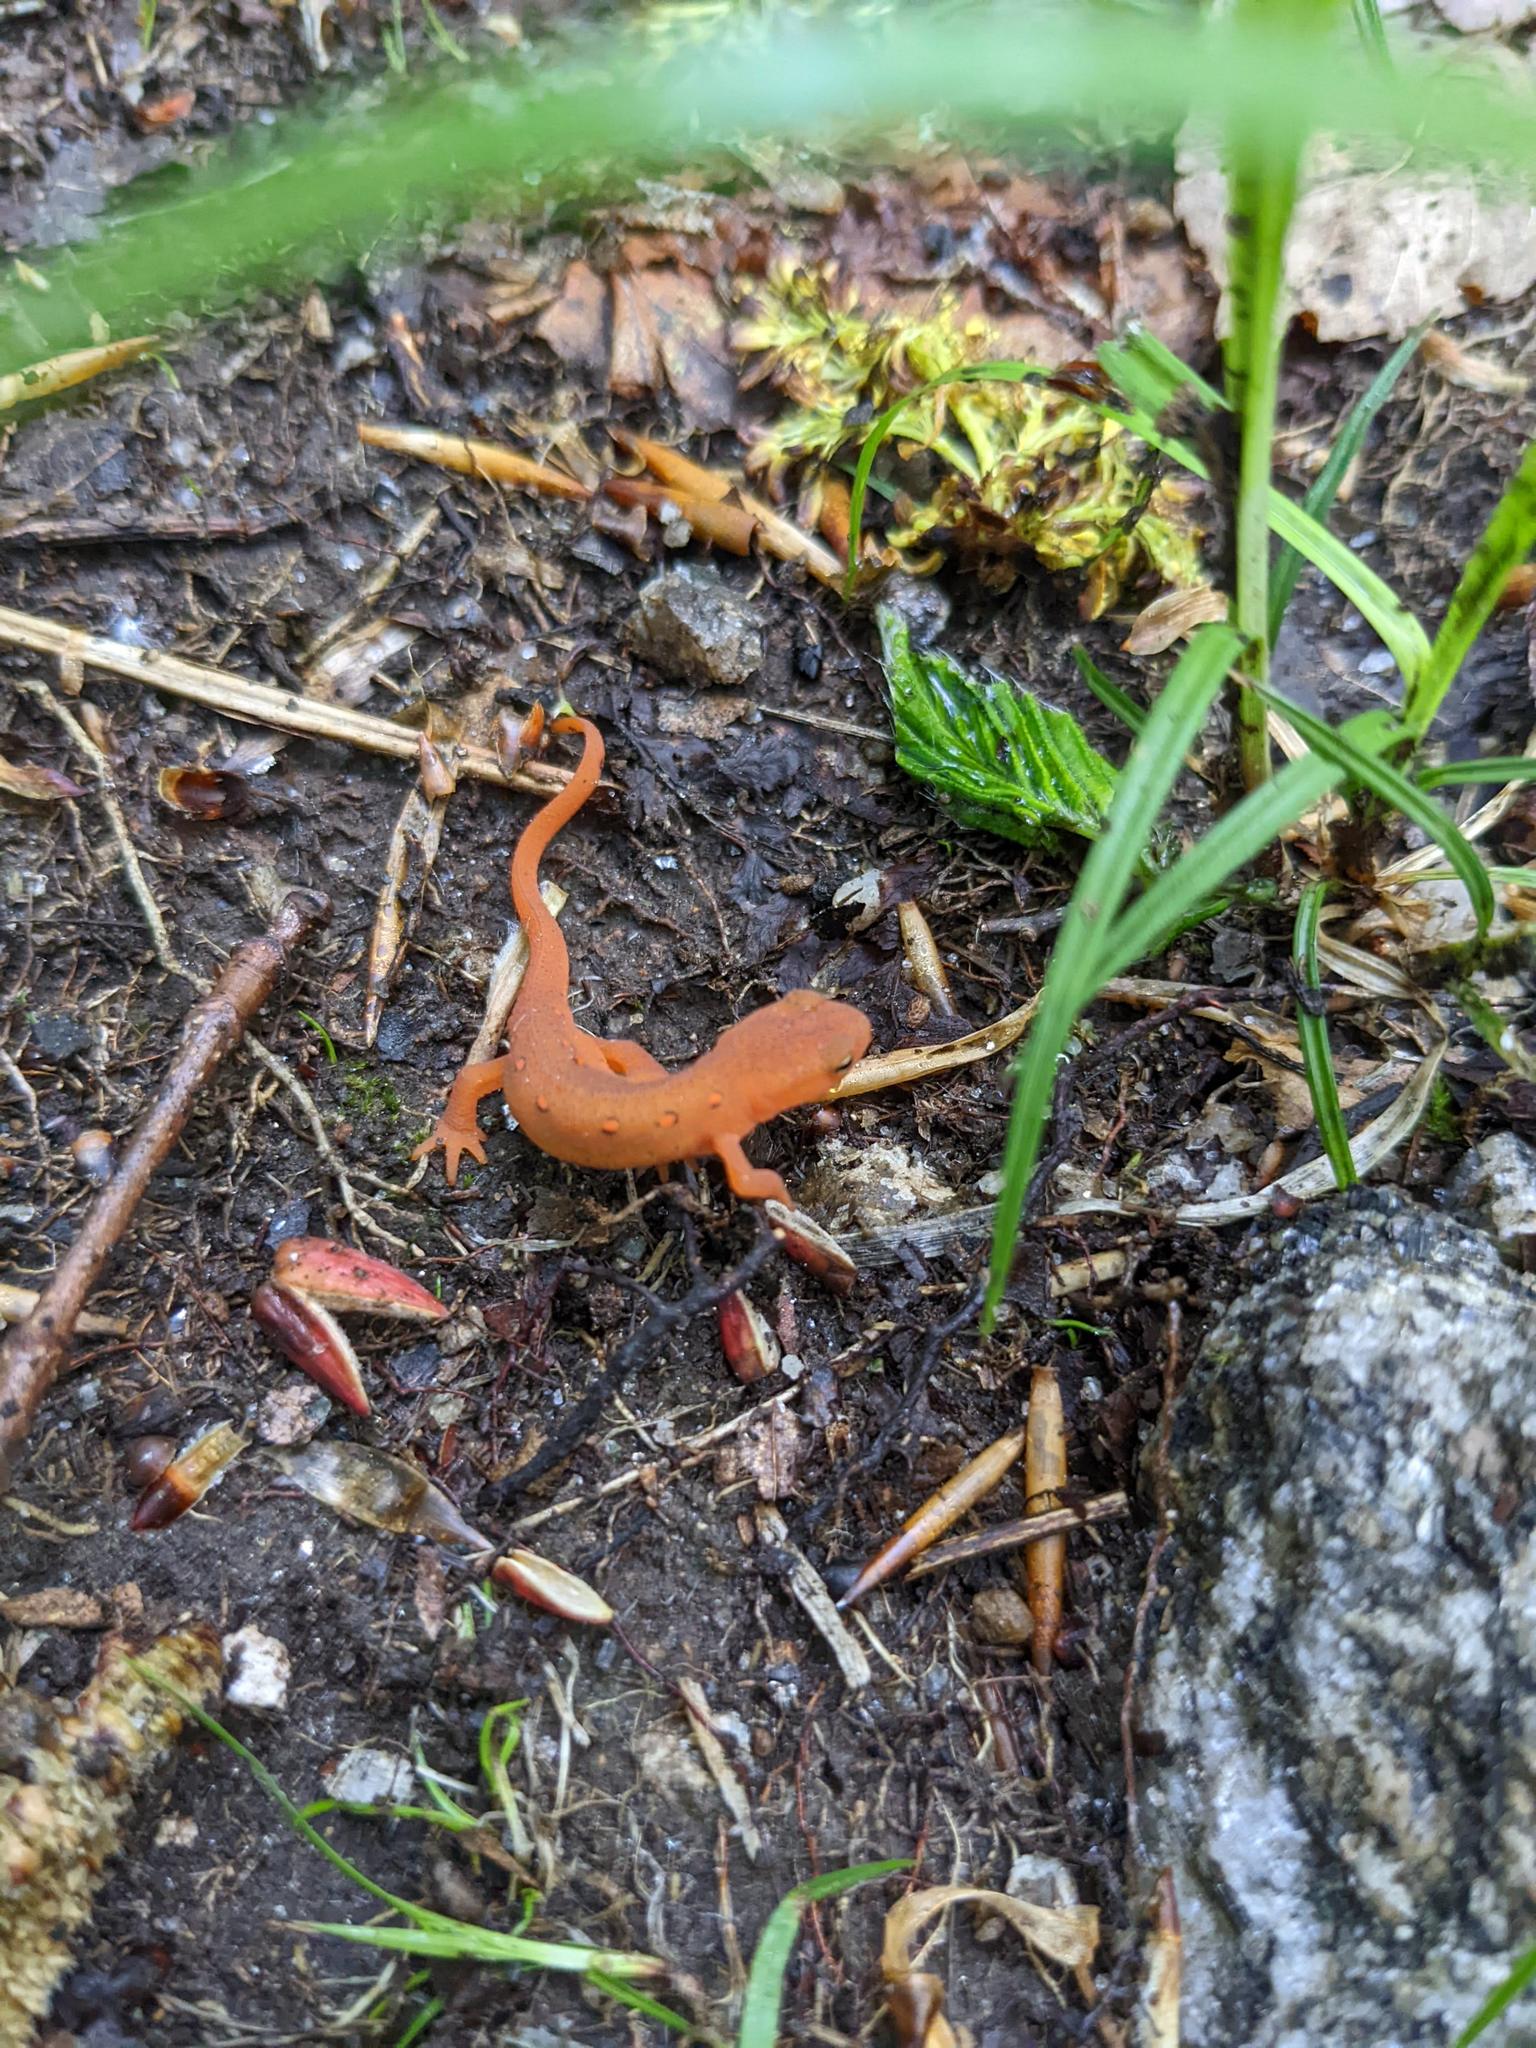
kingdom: Animalia
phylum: Chordata
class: Amphibia
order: Caudata
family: Salamandridae
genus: Notophthalmus
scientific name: Notophthalmus viridescens
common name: Eastern newt
